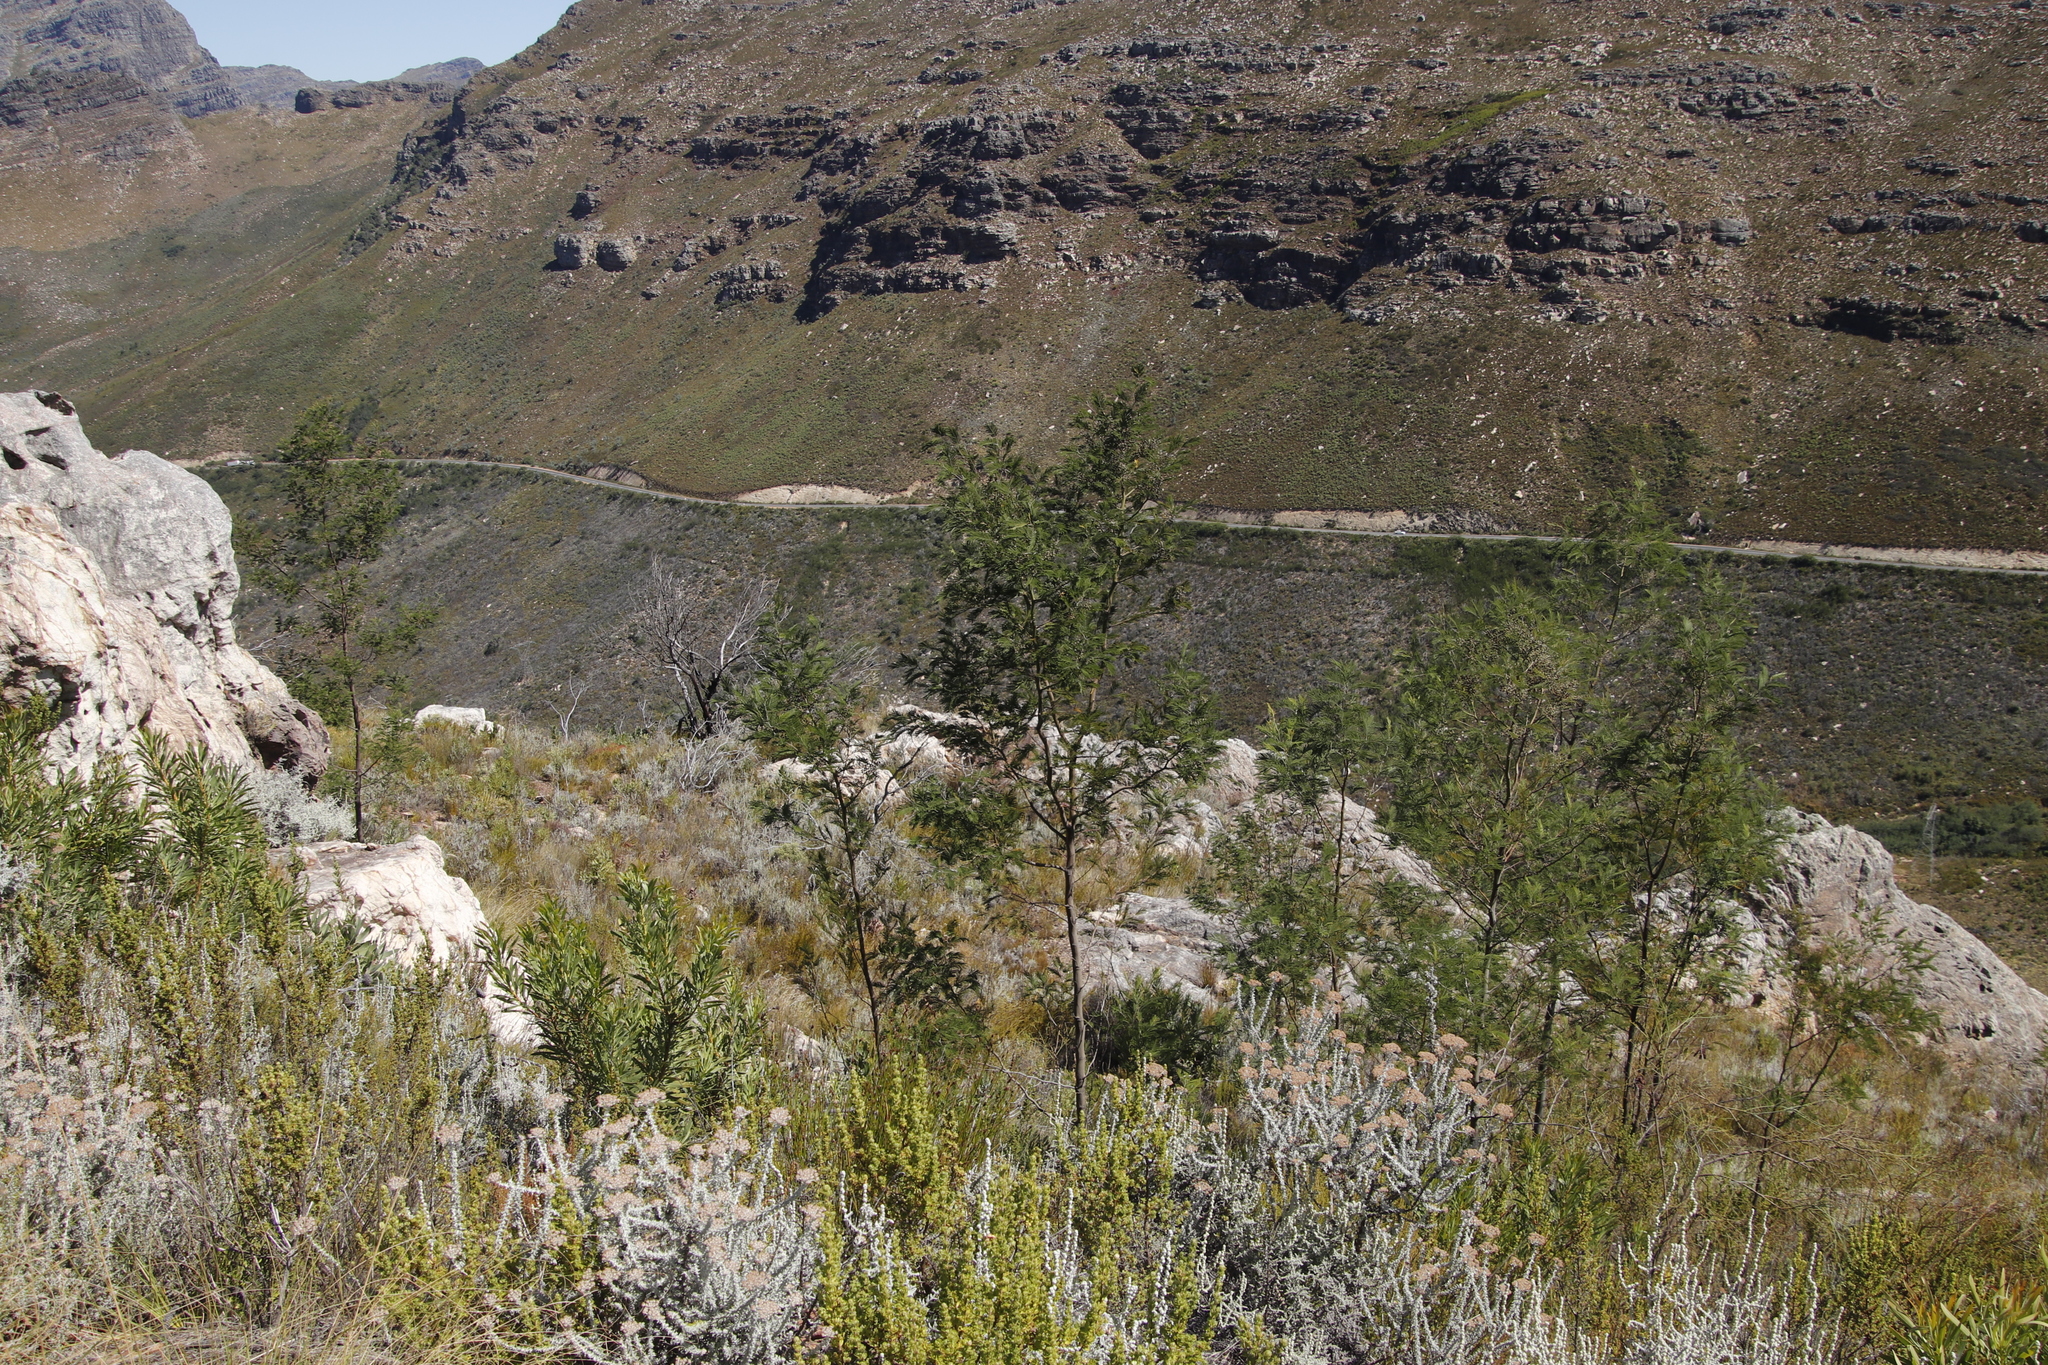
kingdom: Plantae
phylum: Tracheophyta
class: Magnoliopsida
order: Fabales
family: Fabaceae
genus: Acacia
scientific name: Acacia mearnsii
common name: Black wattle
